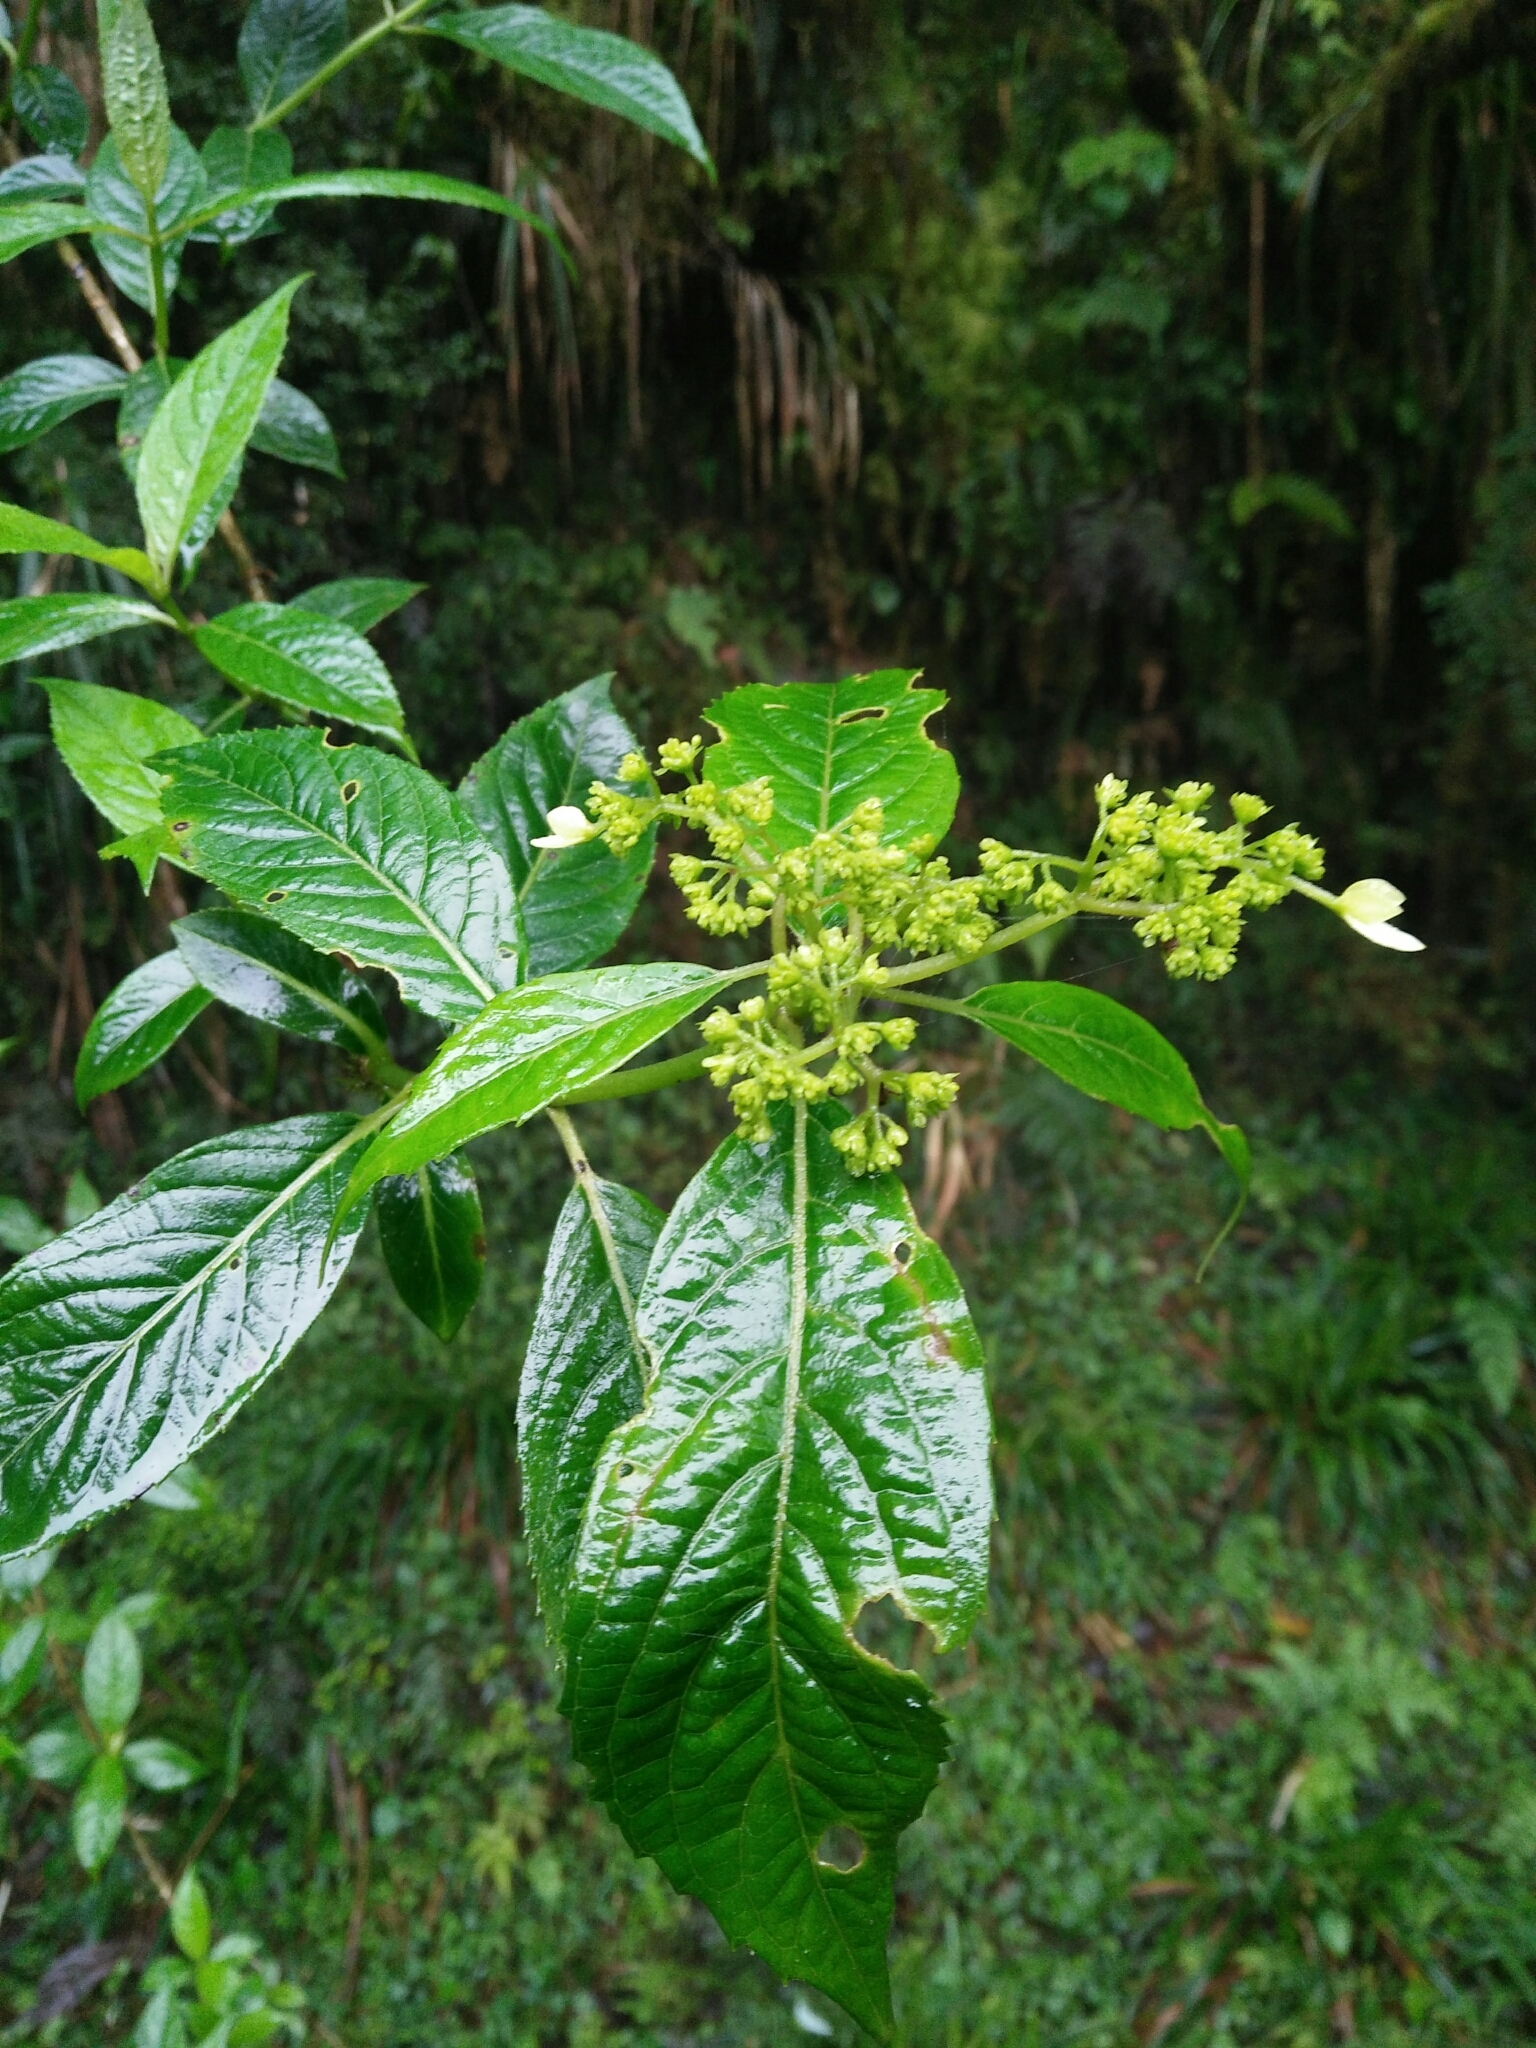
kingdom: Plantae
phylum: Tracheophyta
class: Magnoliopsida
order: Cornales
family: Hydrangeaceae
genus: Hydrangea
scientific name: Hydrangea chinensis
